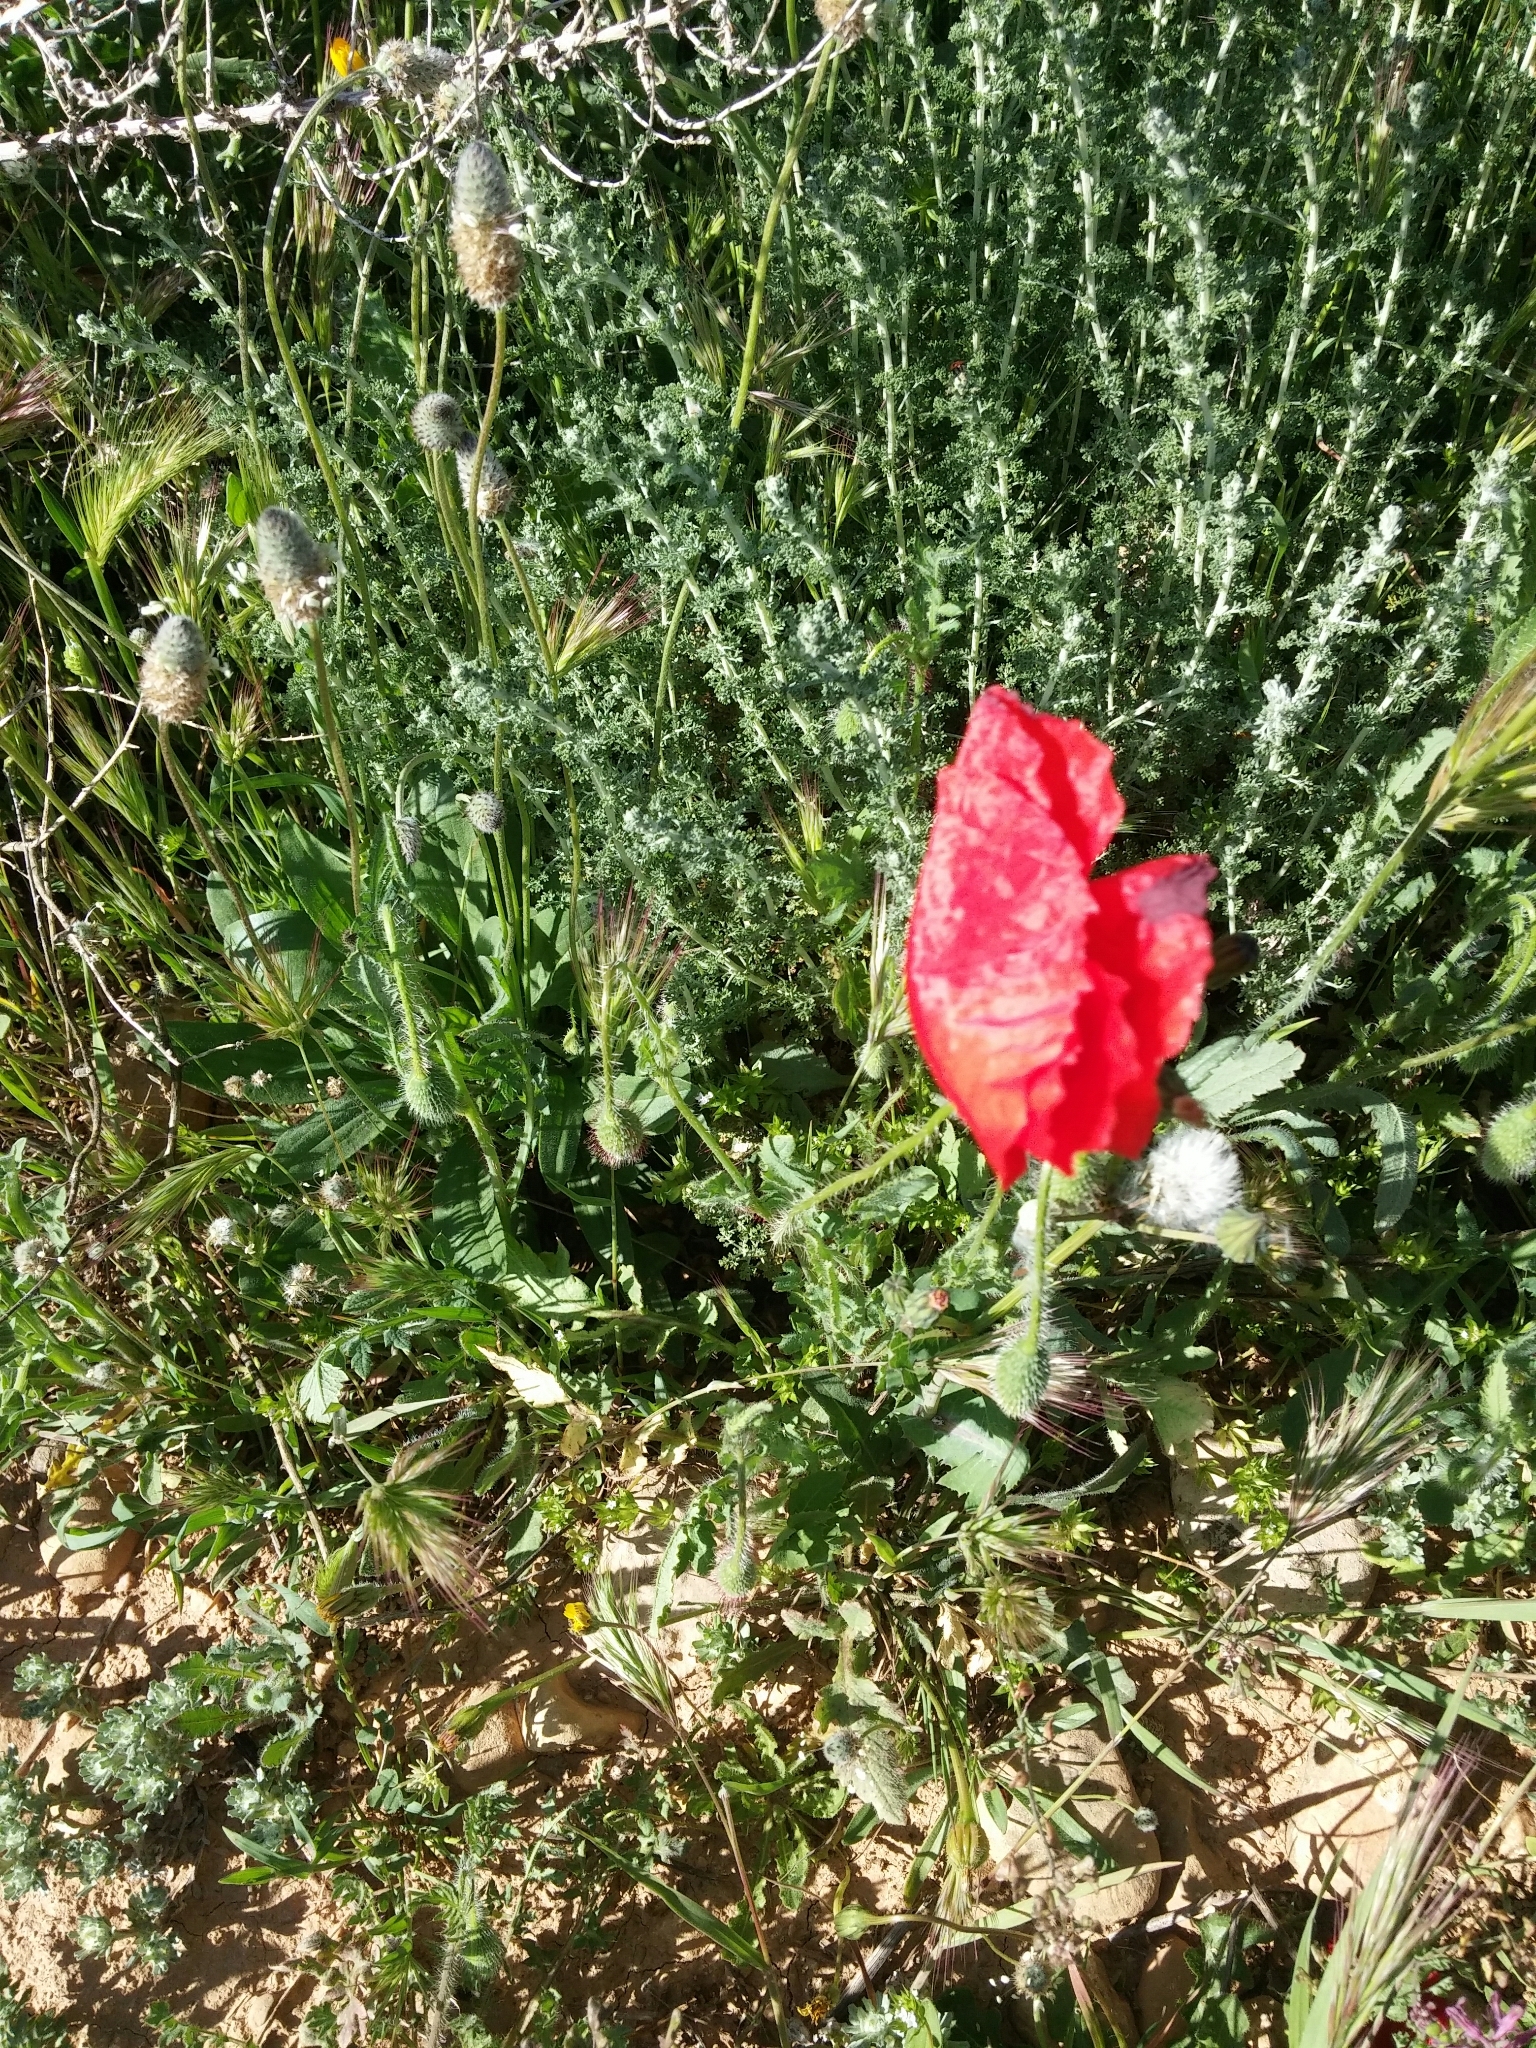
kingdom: Plantae
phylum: Tracheophyta
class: Magnoliopsida
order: Ranunculales
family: Papaveraceae
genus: Papaver
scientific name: Papaver rhoeas
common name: Corn poppy
